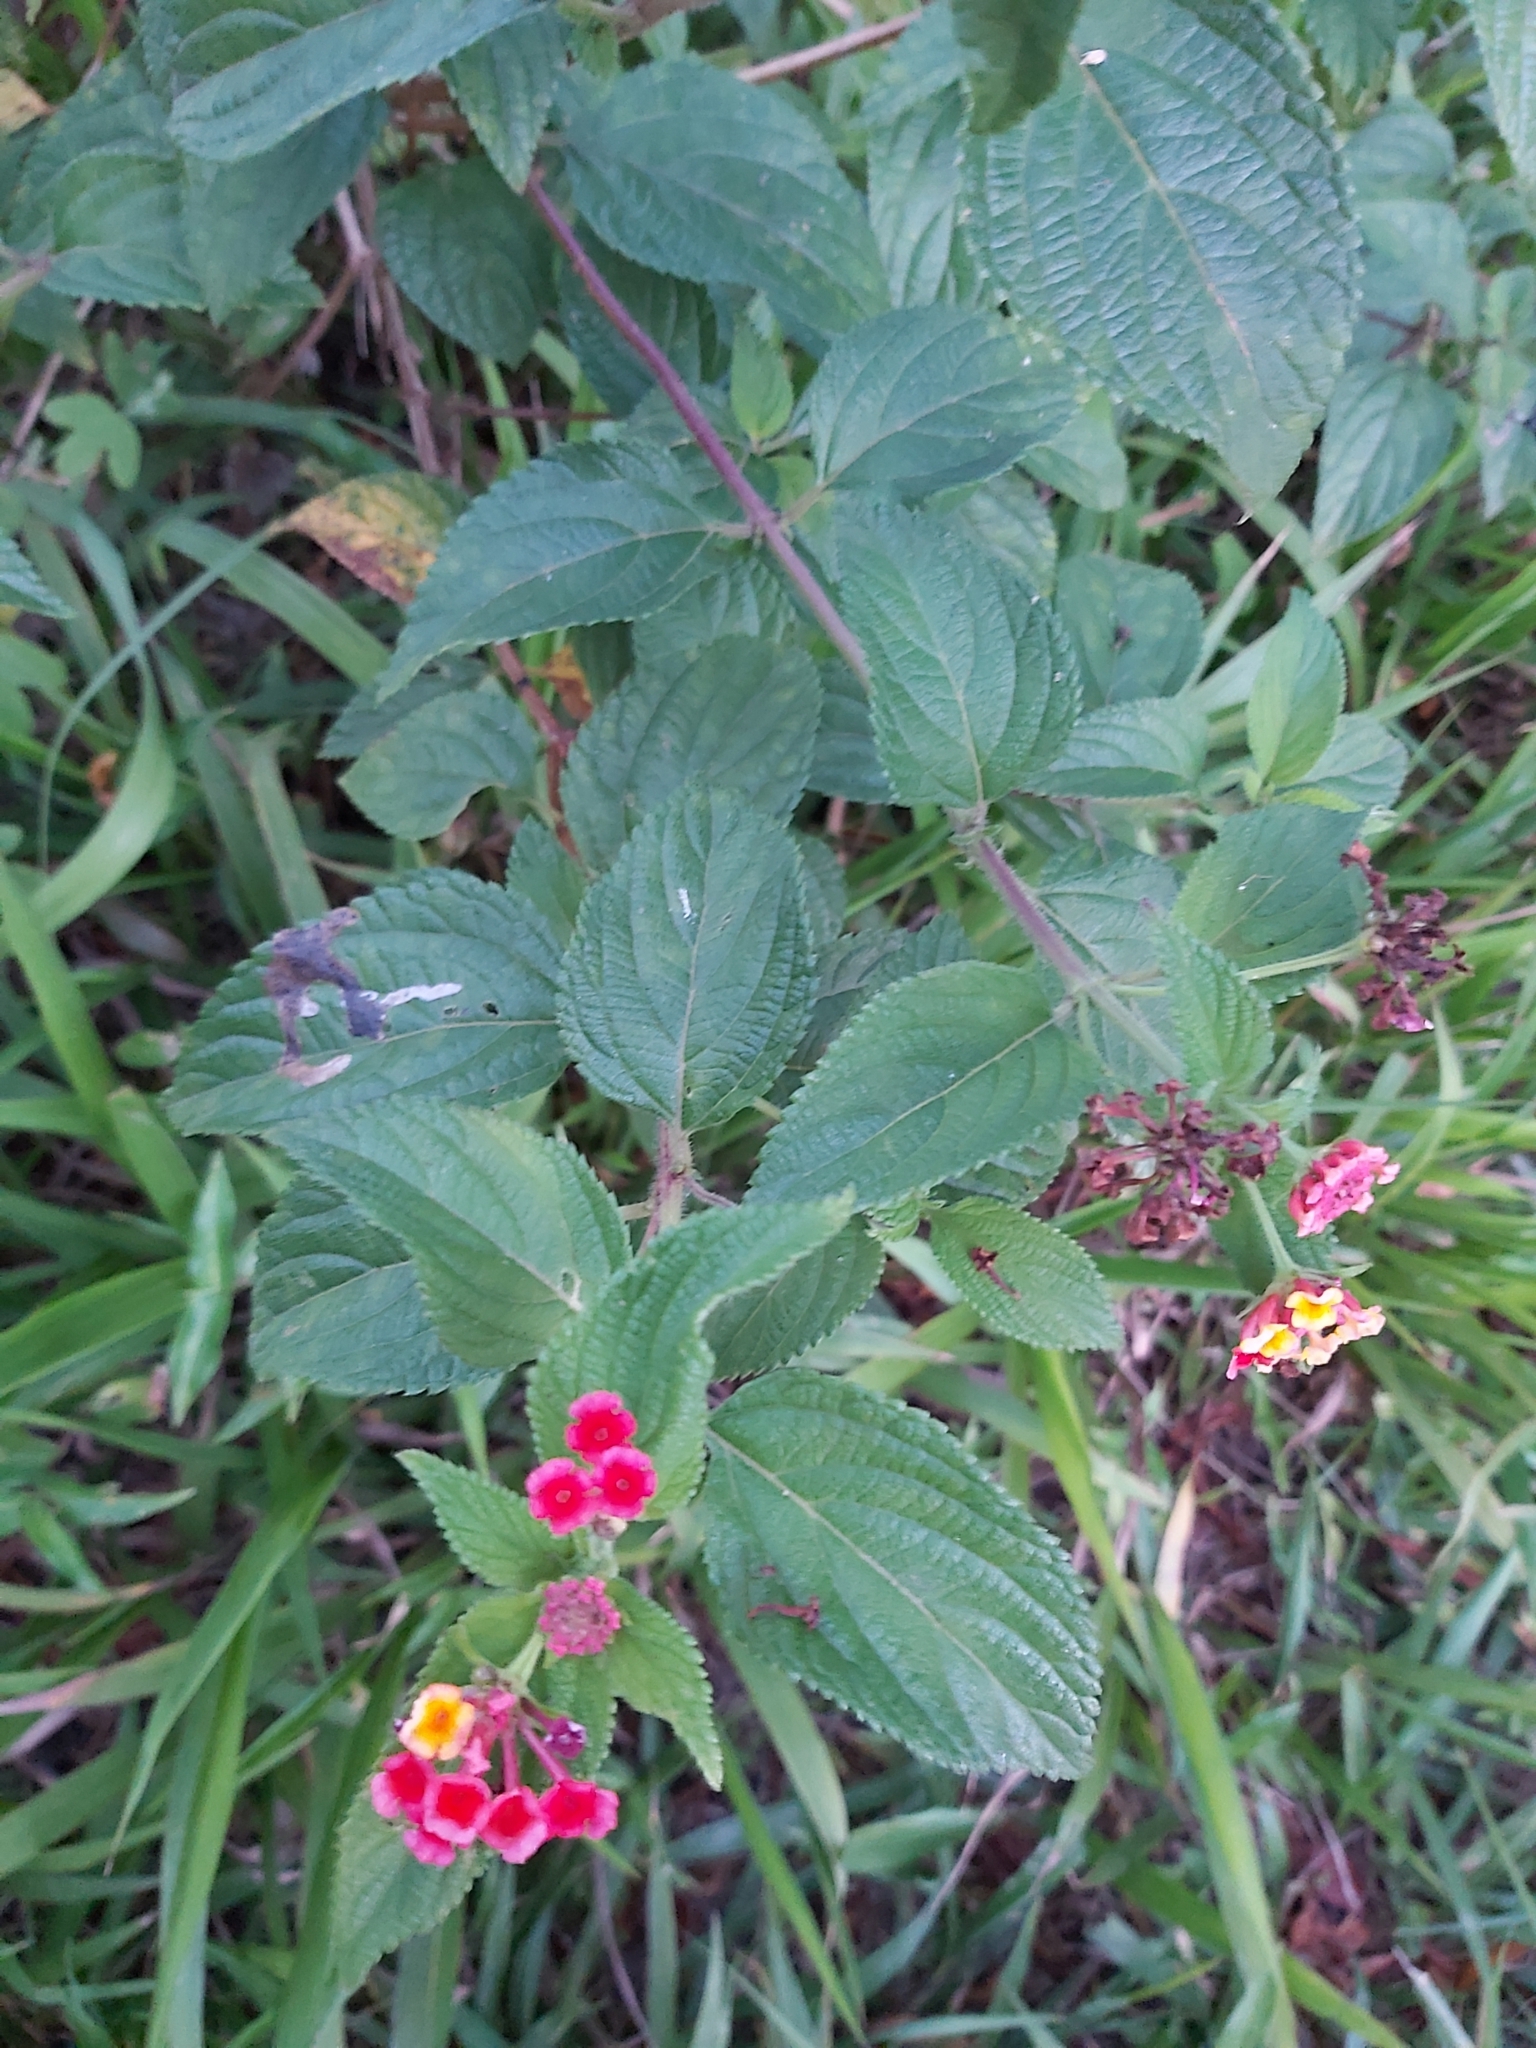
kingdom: Plantae
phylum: Tracheophyta
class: Magnoliopsida
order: Lamiales
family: Verbenaceae
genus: Lantana
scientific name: Lantana camara
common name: Lantana
